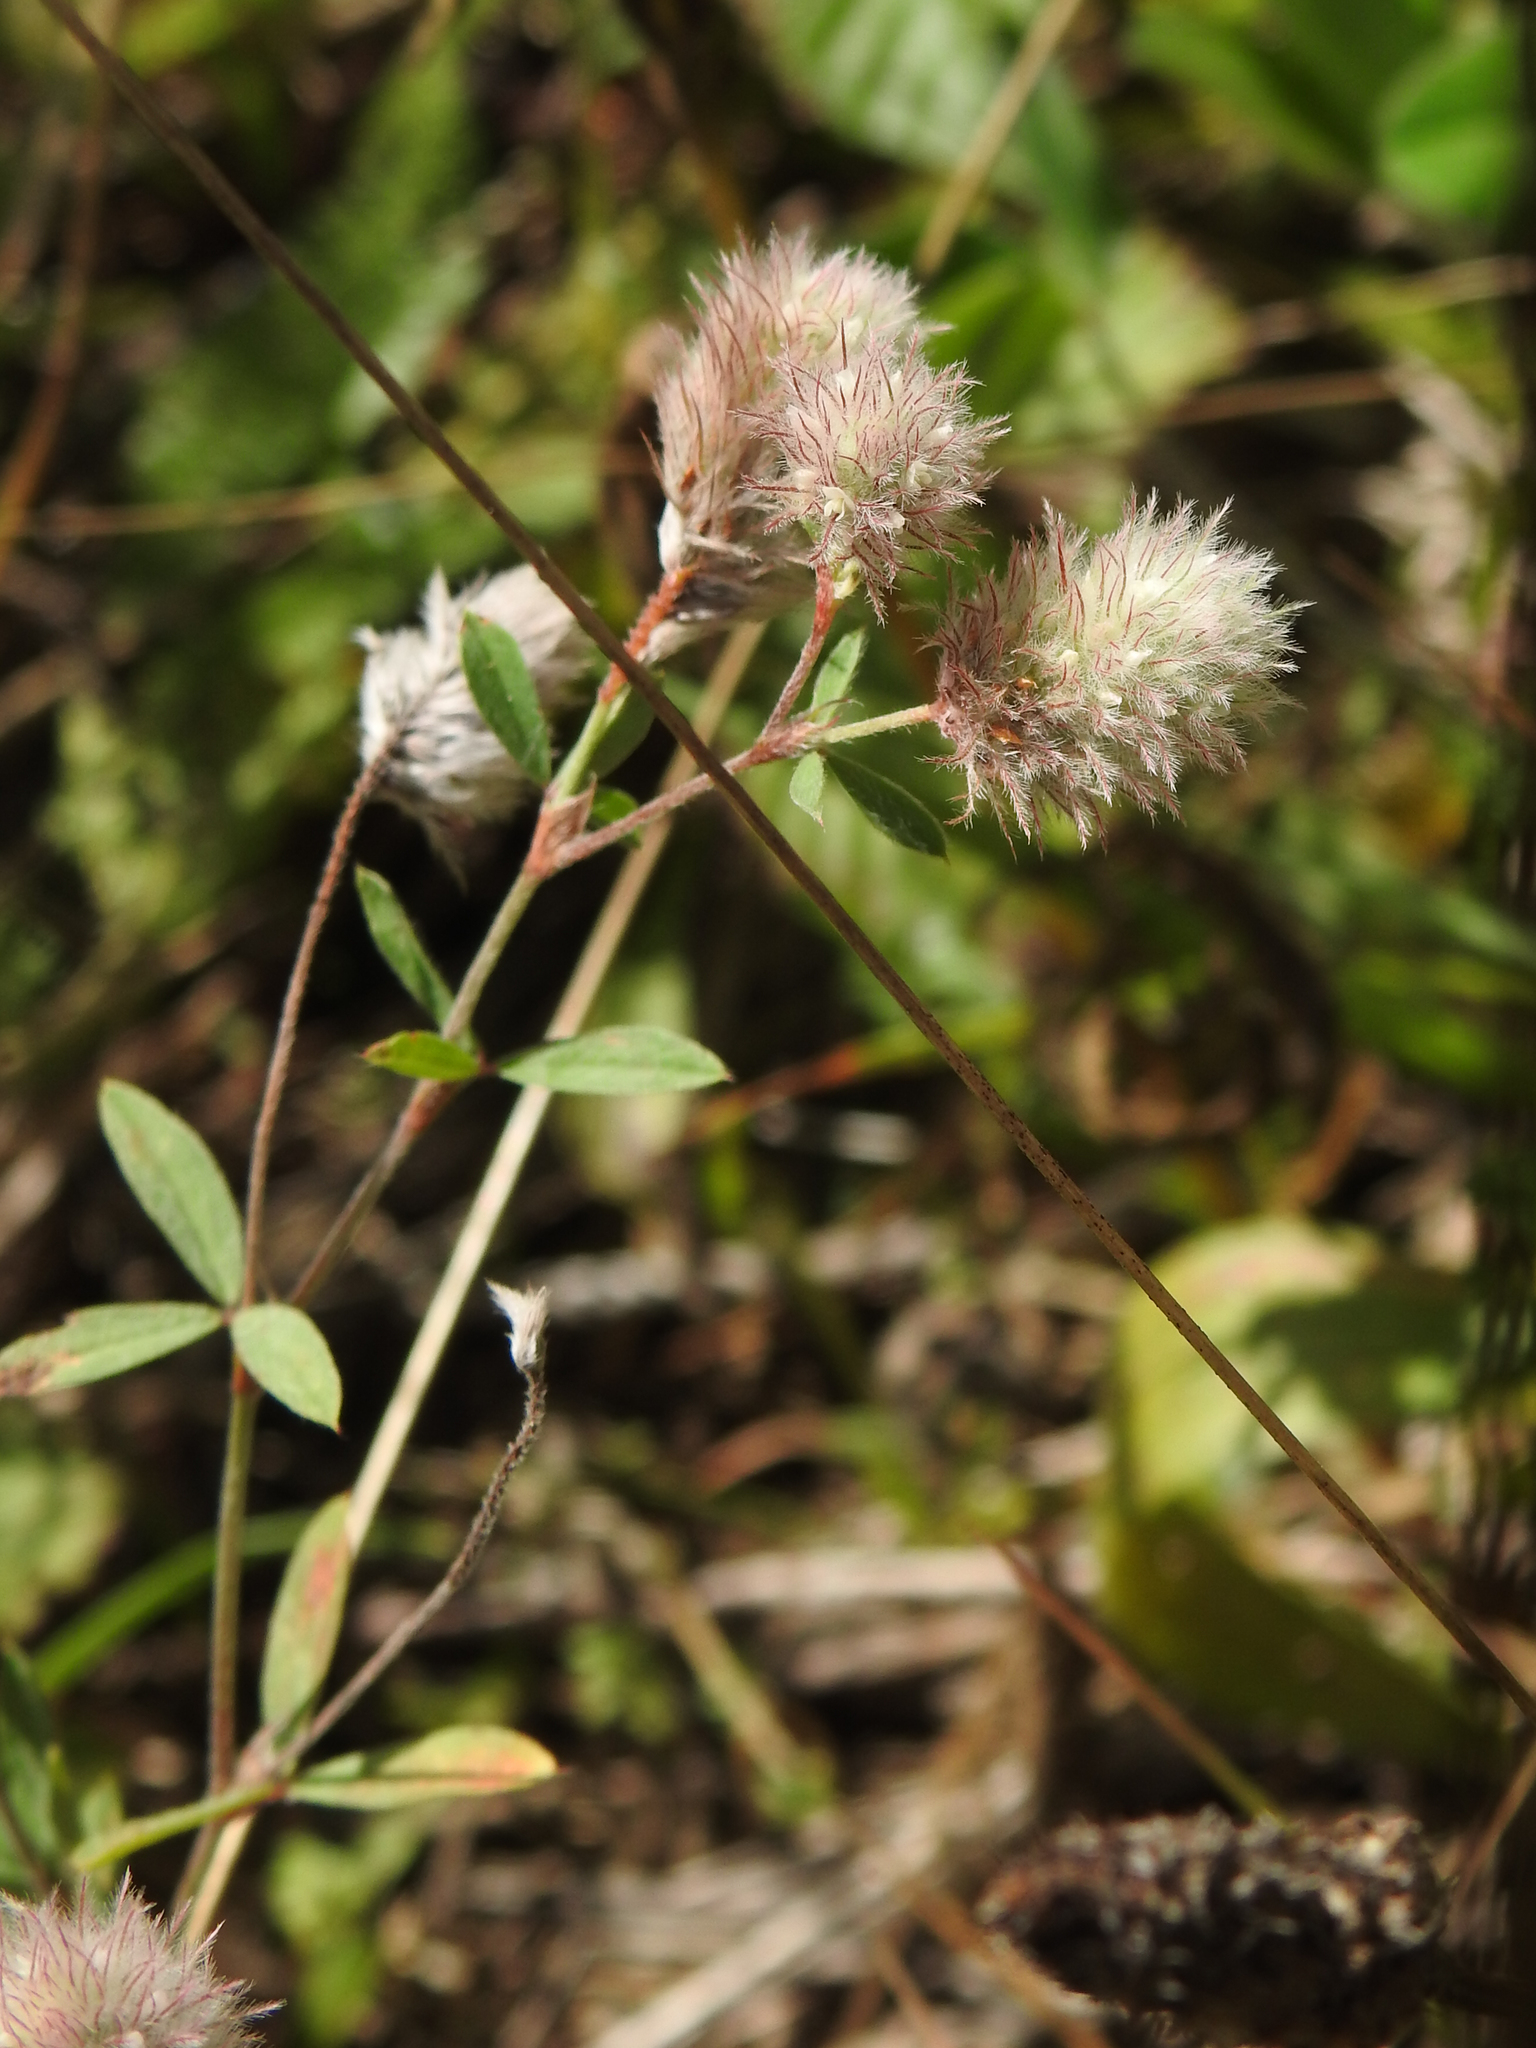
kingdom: Plantae
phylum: Tracheophyta
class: Magnoliopsida
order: Fabales
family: Fabaceae
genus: Trifolium
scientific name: Trifolium arvense
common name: Hare's-foot clover
